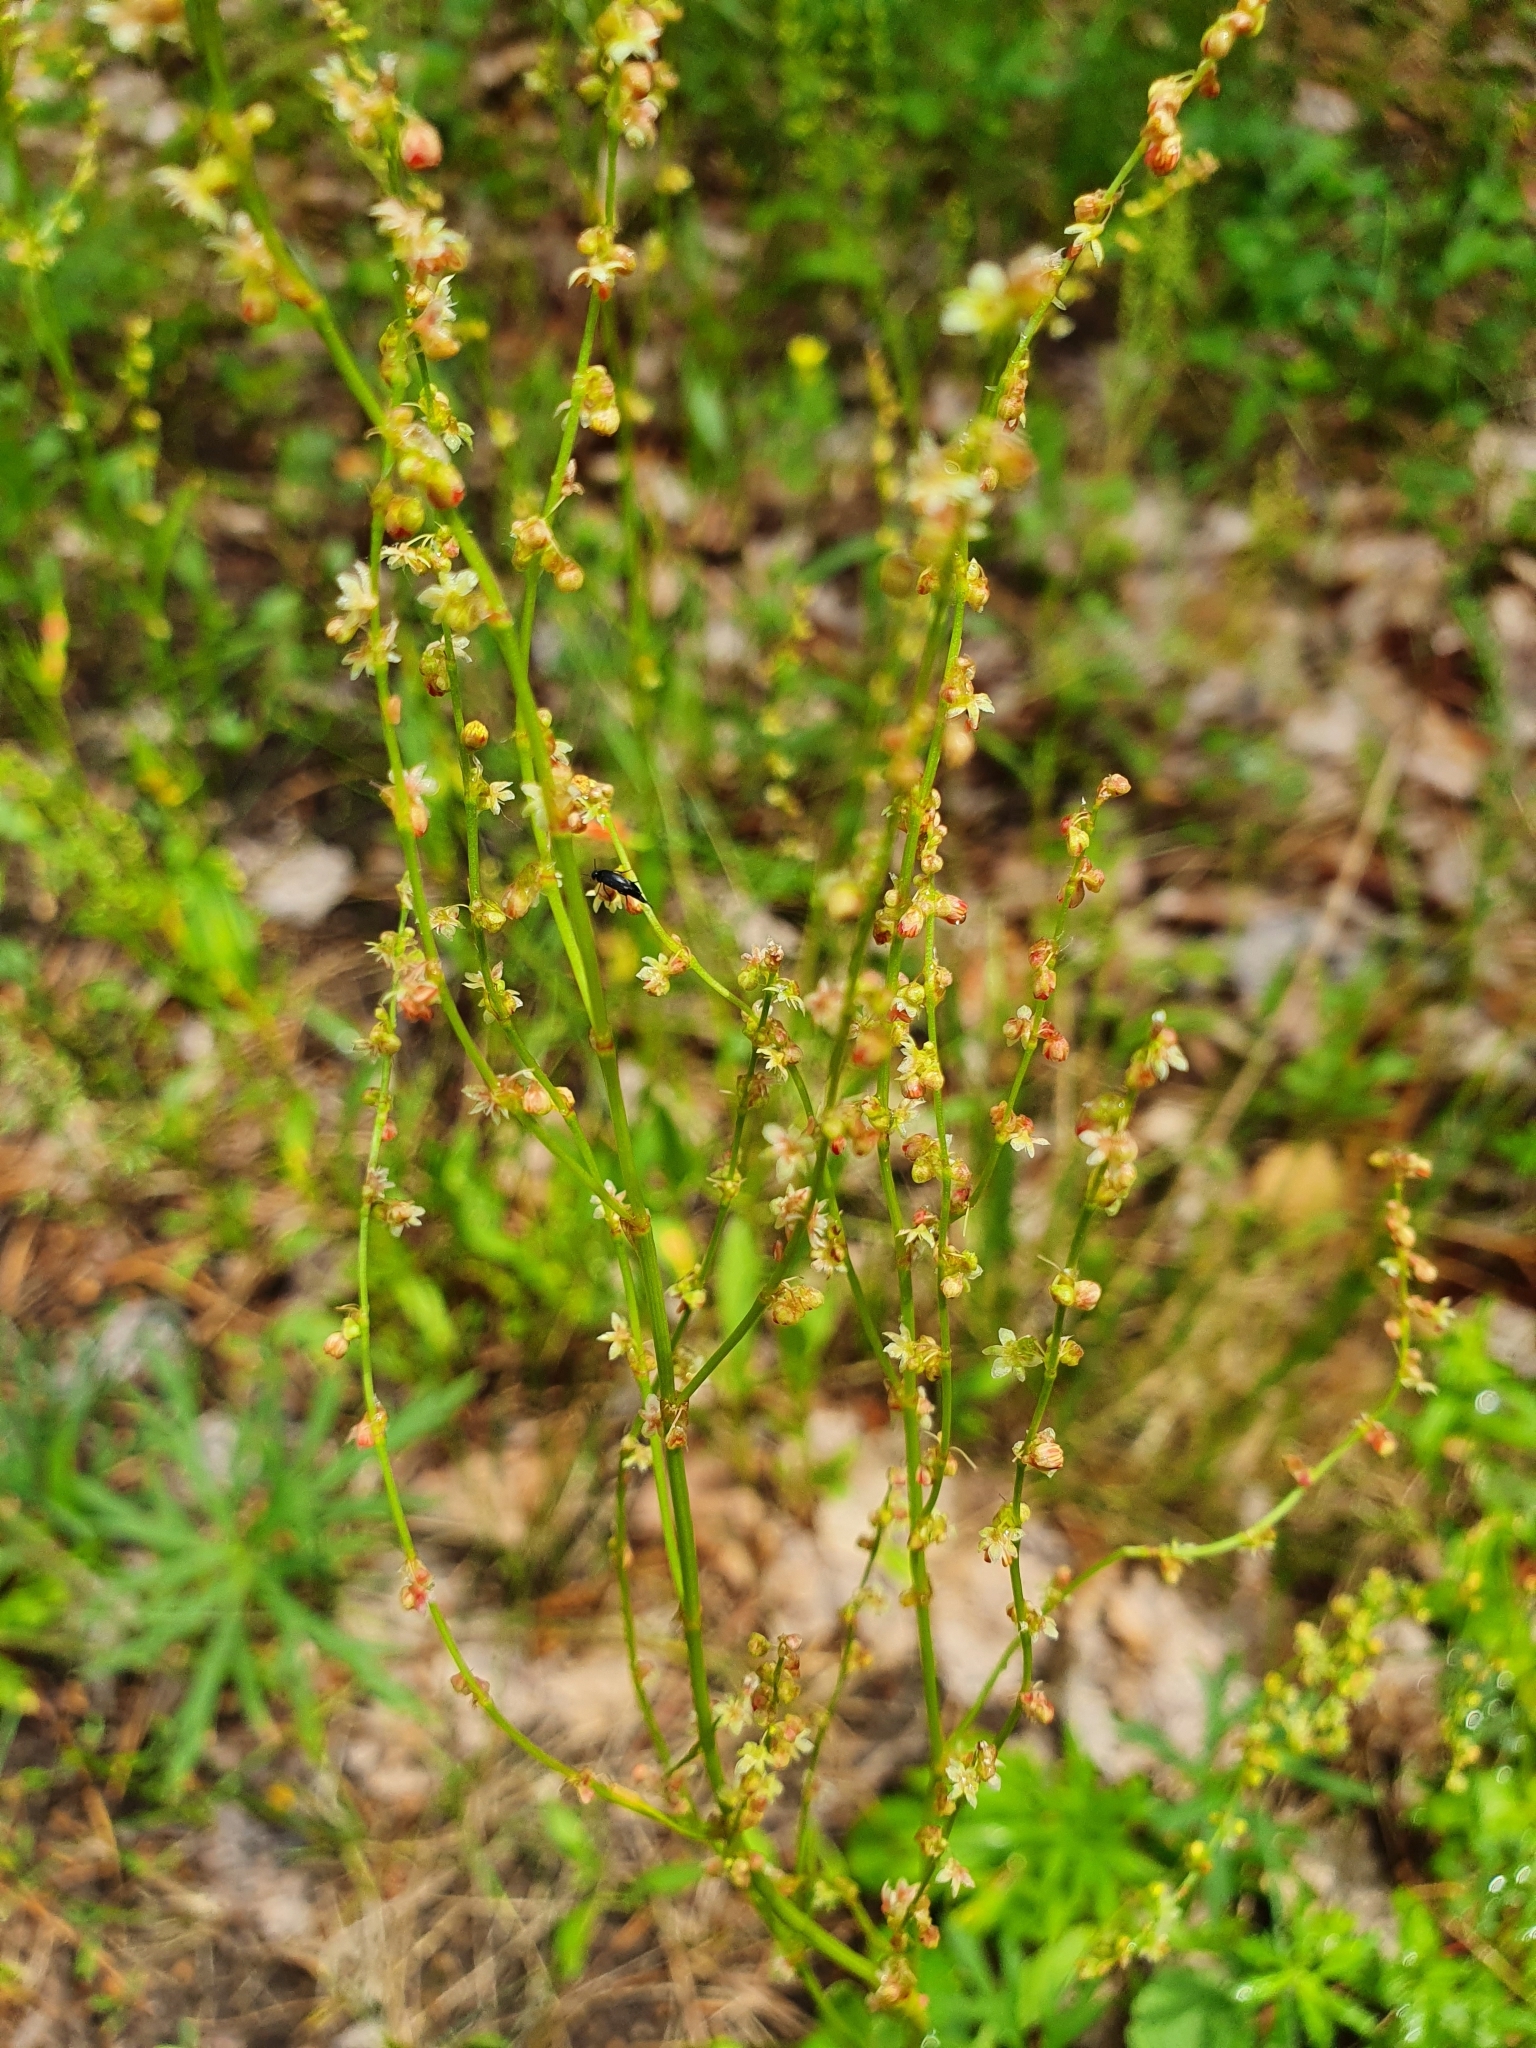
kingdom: Plantae
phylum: Tracheophyta
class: Magnoliopsida
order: Caryophyllales
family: Polygonaceae
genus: Rumex
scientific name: Rumex acetosella
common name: Common sheep sorrel
